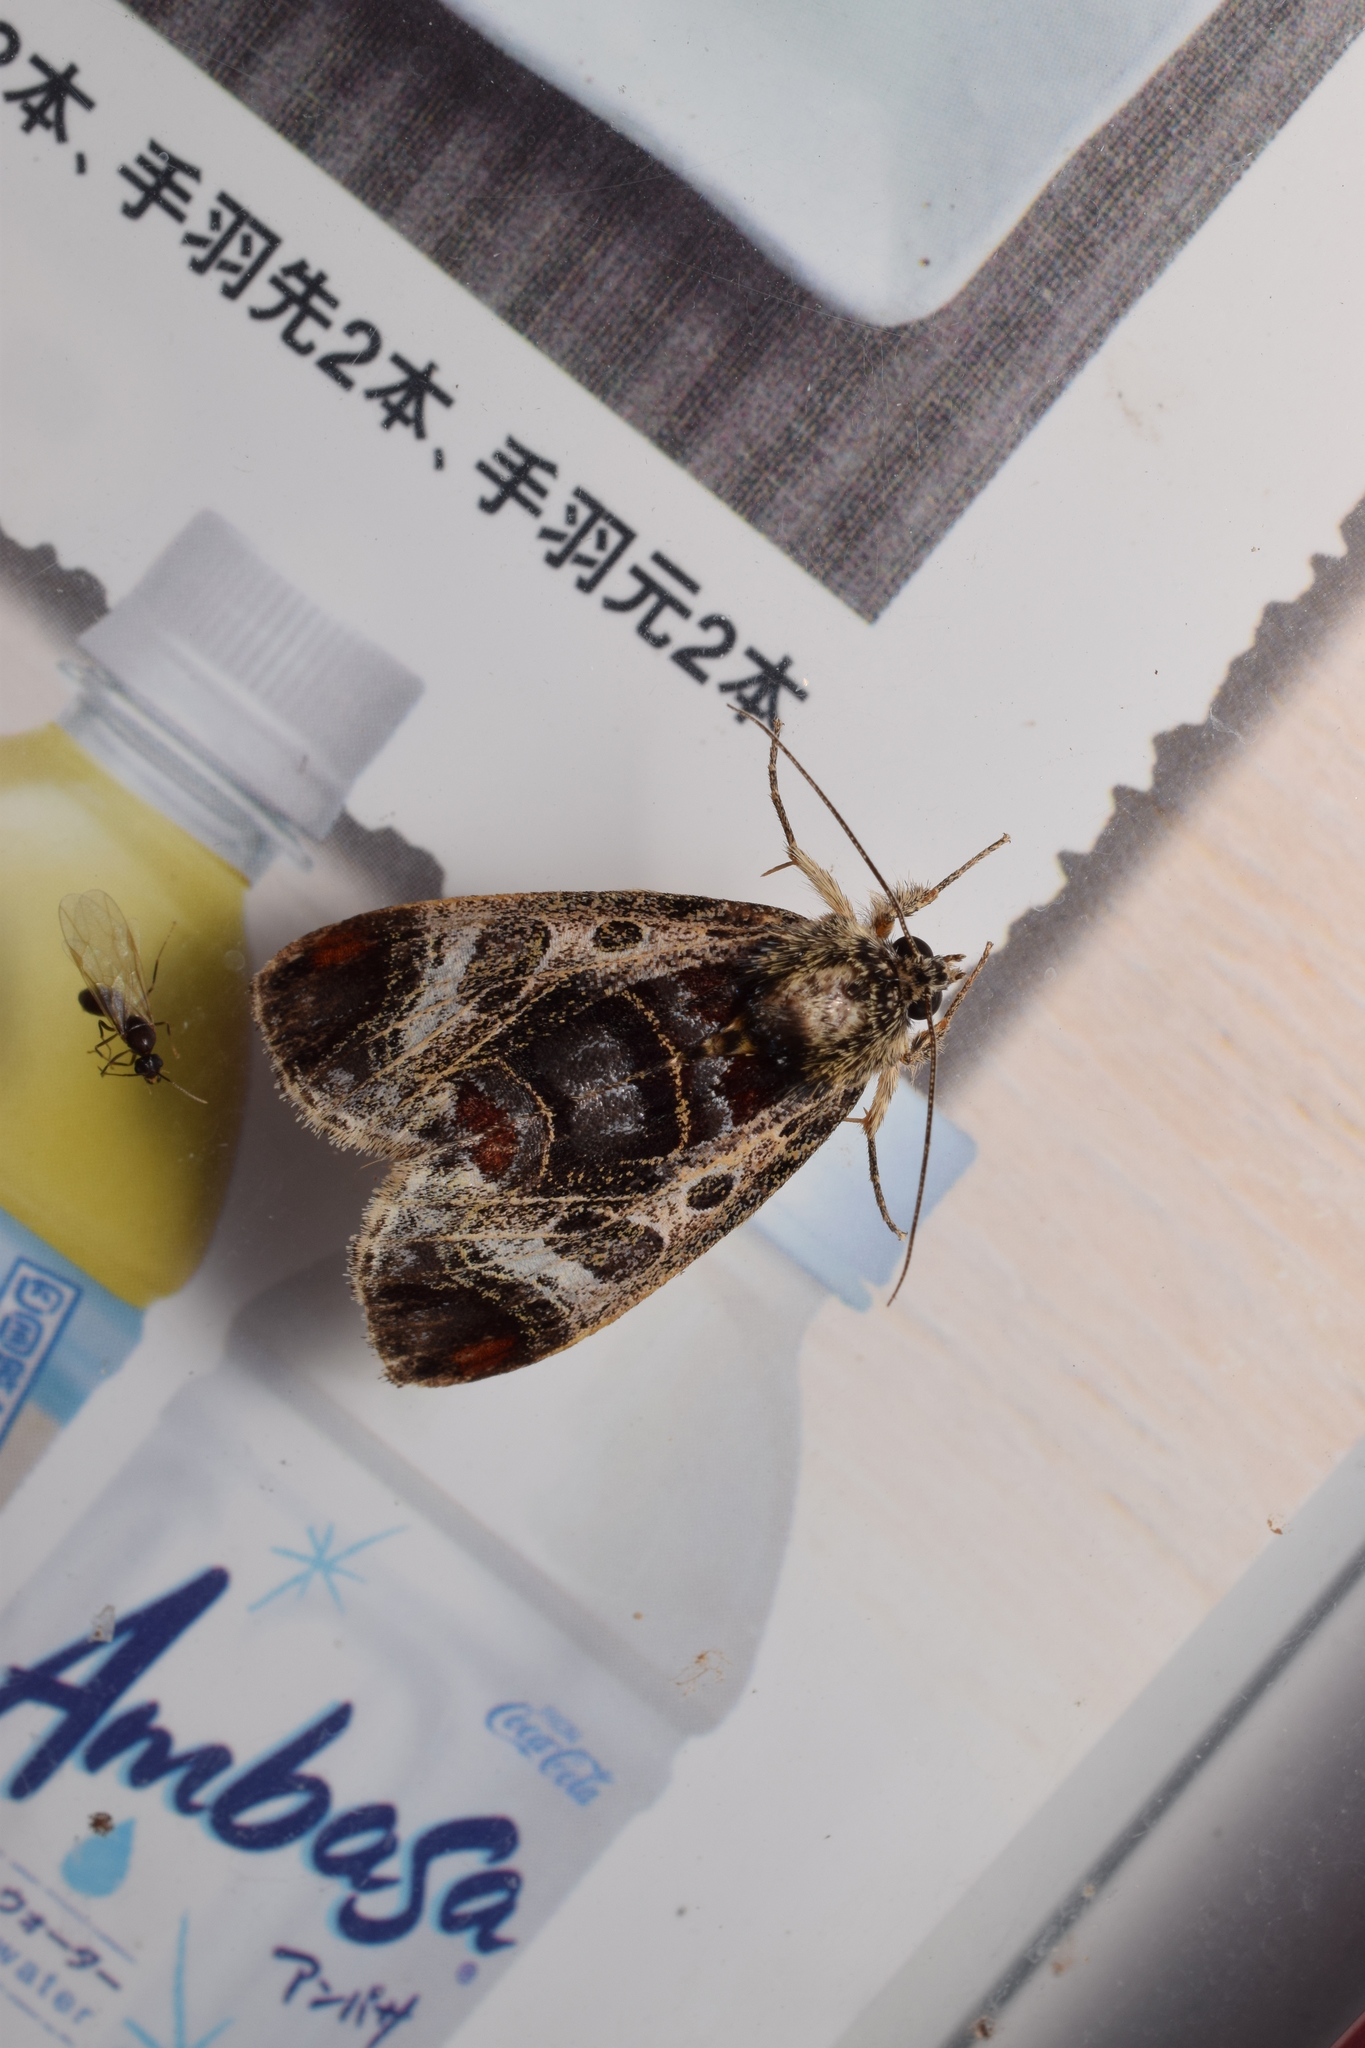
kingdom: Animalia
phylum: Arthropoda
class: Insecta
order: Lepidoptera
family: Noctuidae
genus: Sarbanissa
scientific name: Sarbanissa venusta
